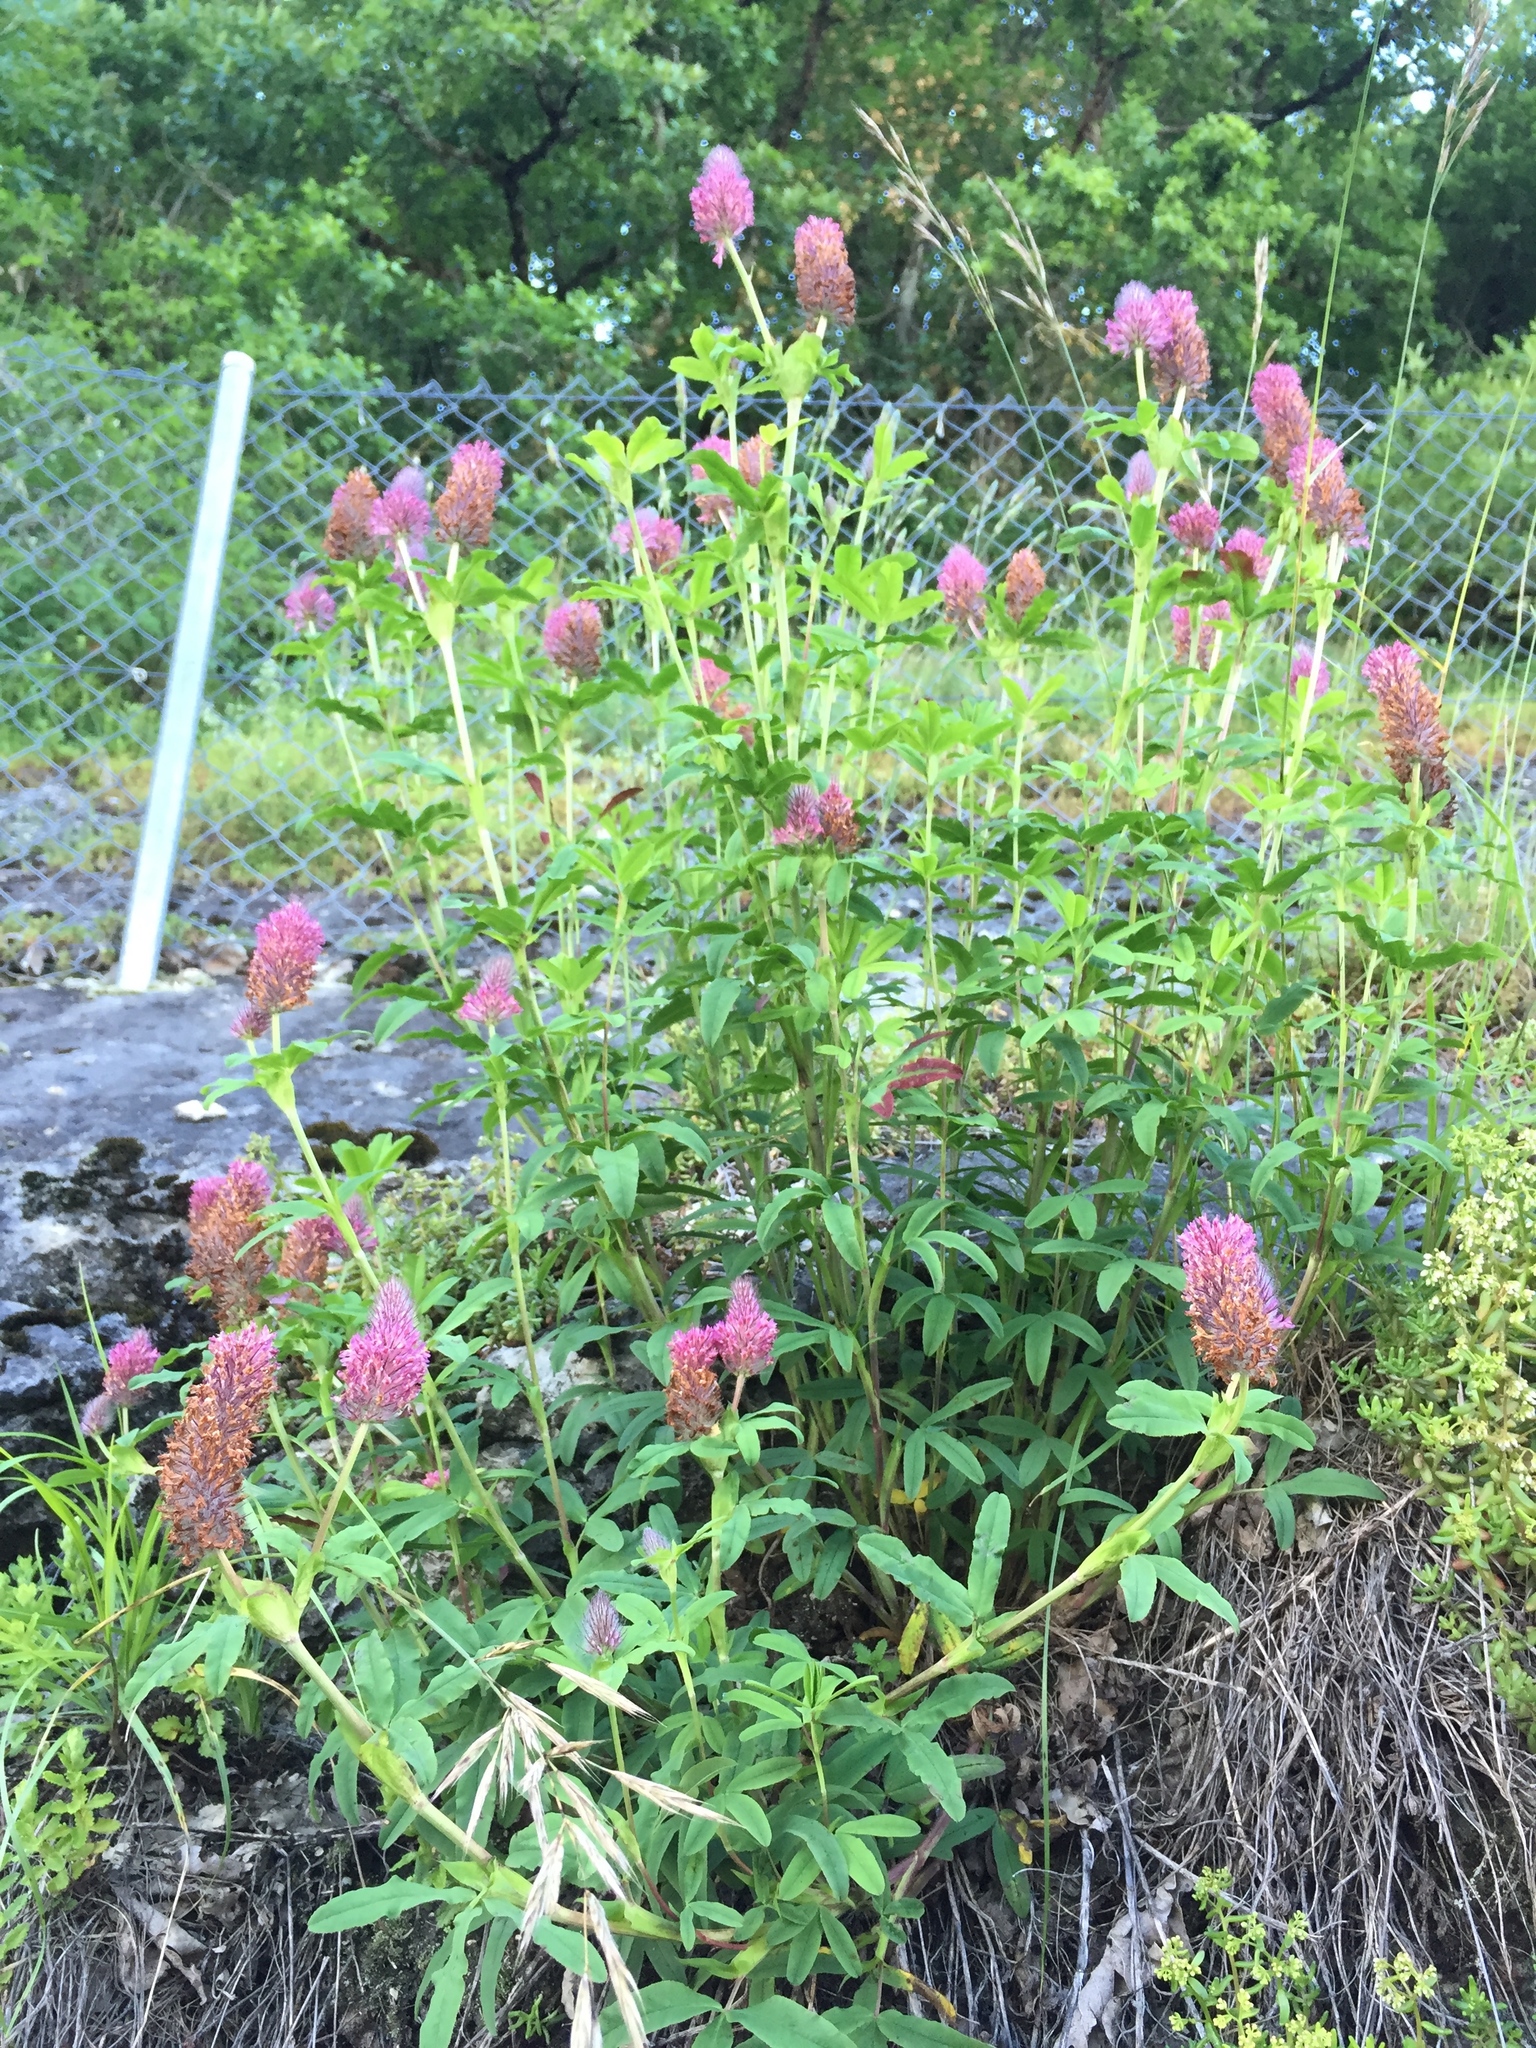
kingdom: Plantae
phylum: Tracheophyta
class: Magnoliopsida
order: Fabales
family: Fabaceae
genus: Trifolium
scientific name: Trifolium rubens
